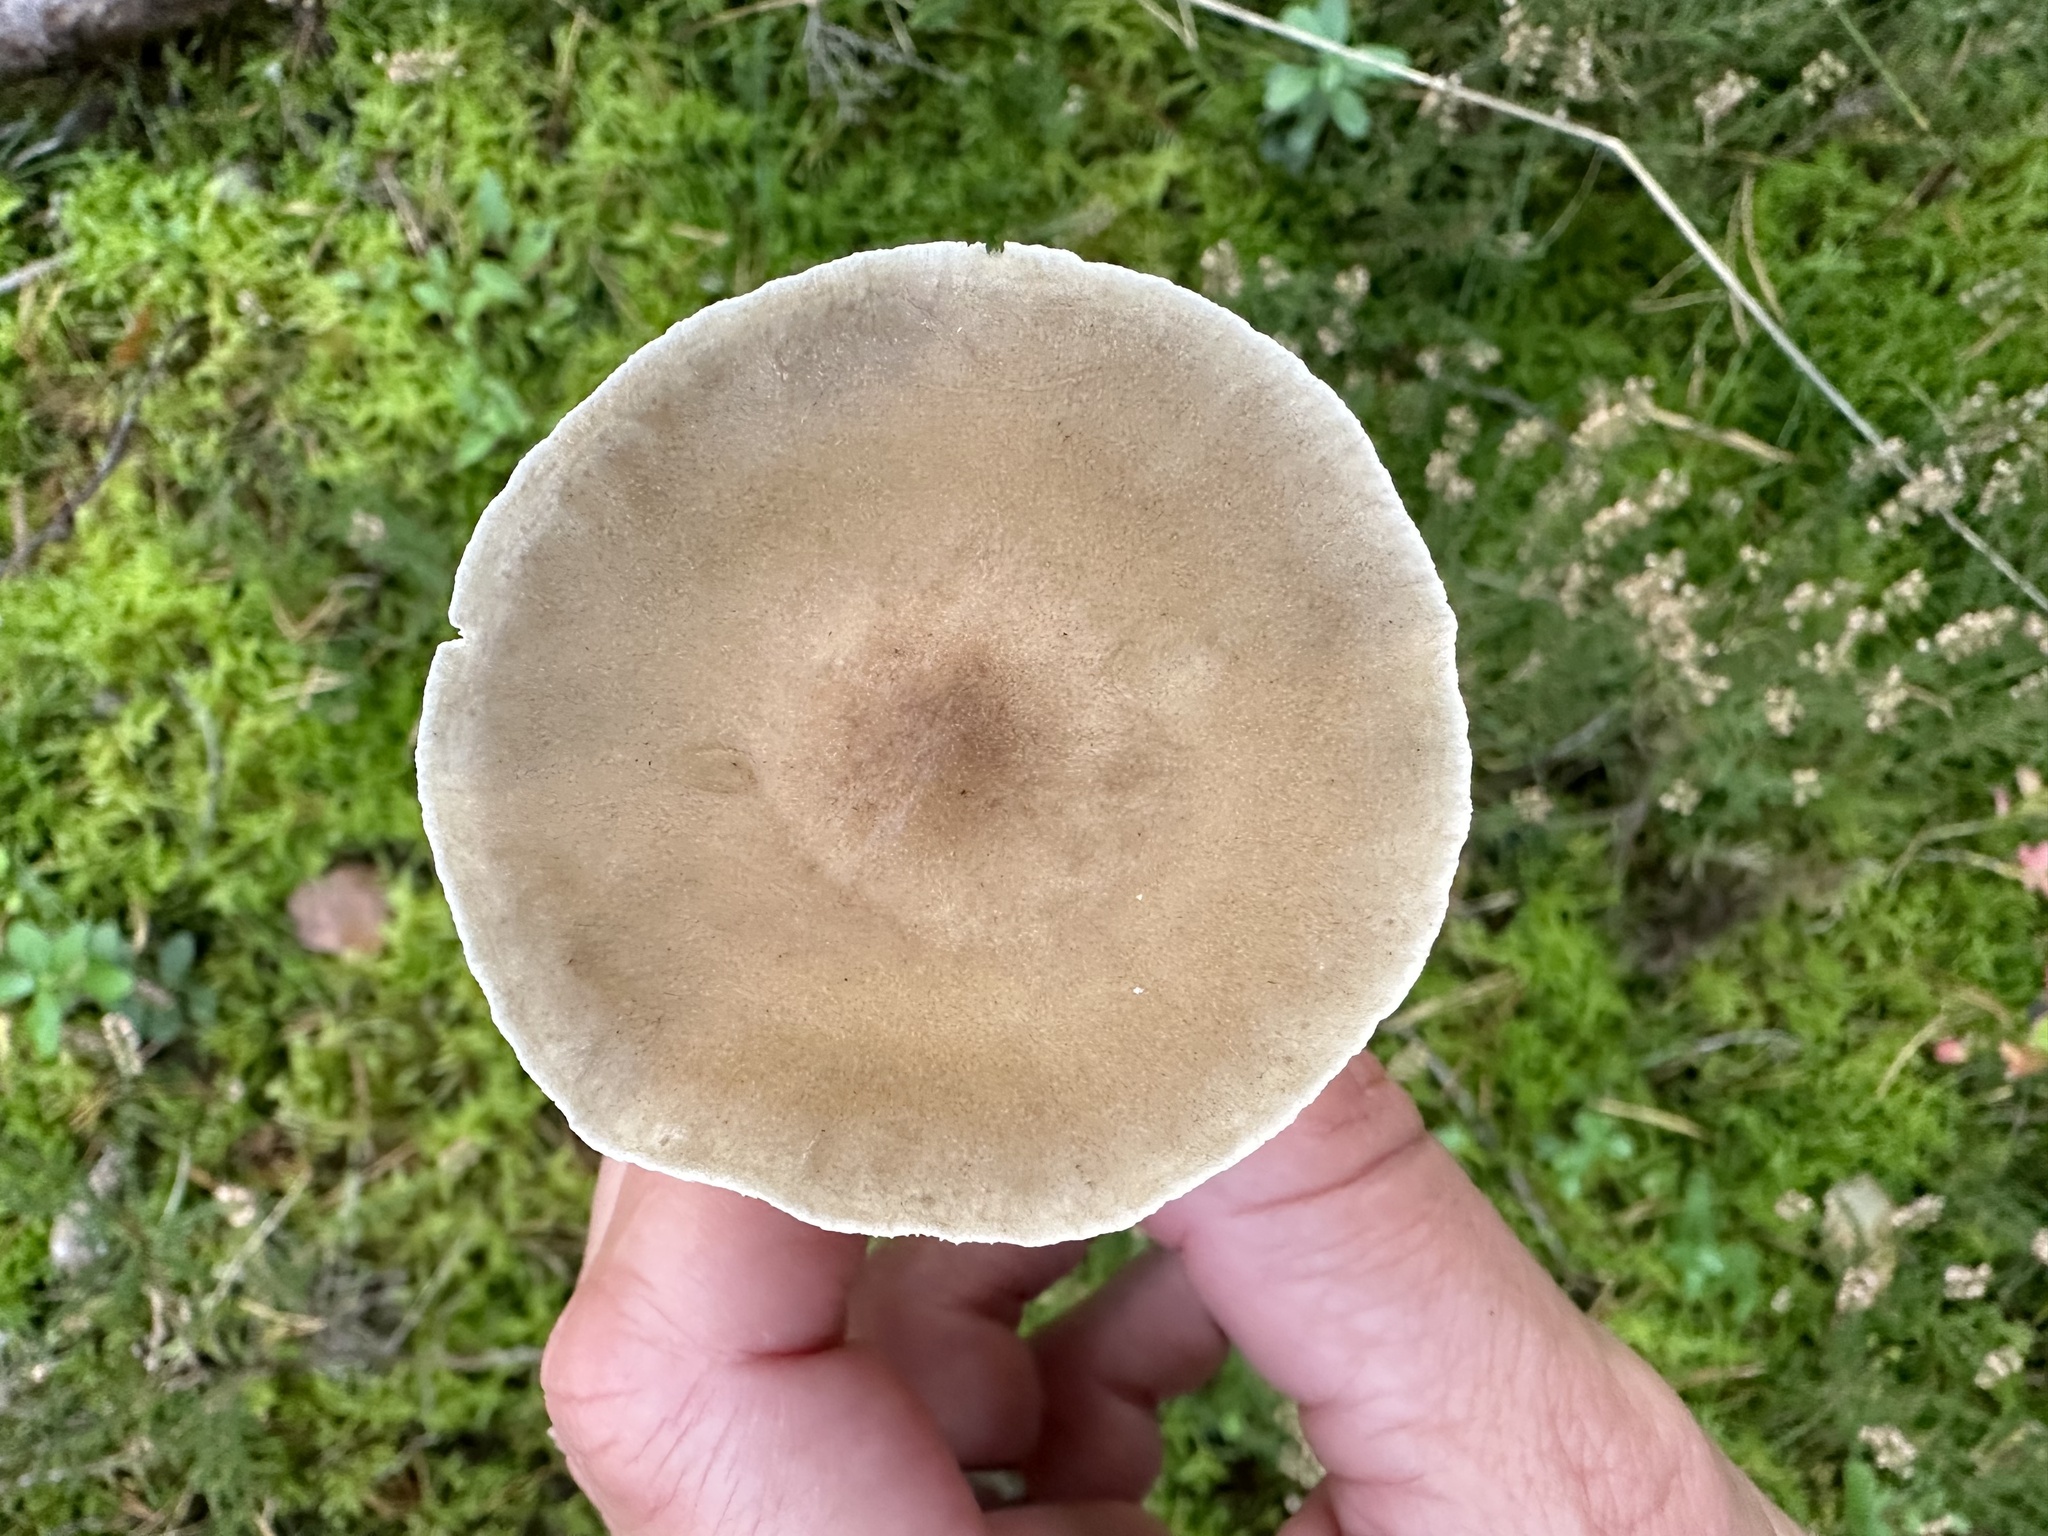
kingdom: Fungi
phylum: Basidiomycota
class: Agaricomycetes
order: Agaricales
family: Hygrophoraceae
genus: Ampulloclitocybe
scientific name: Ampulloclitocybe clavipes
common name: Club foot
